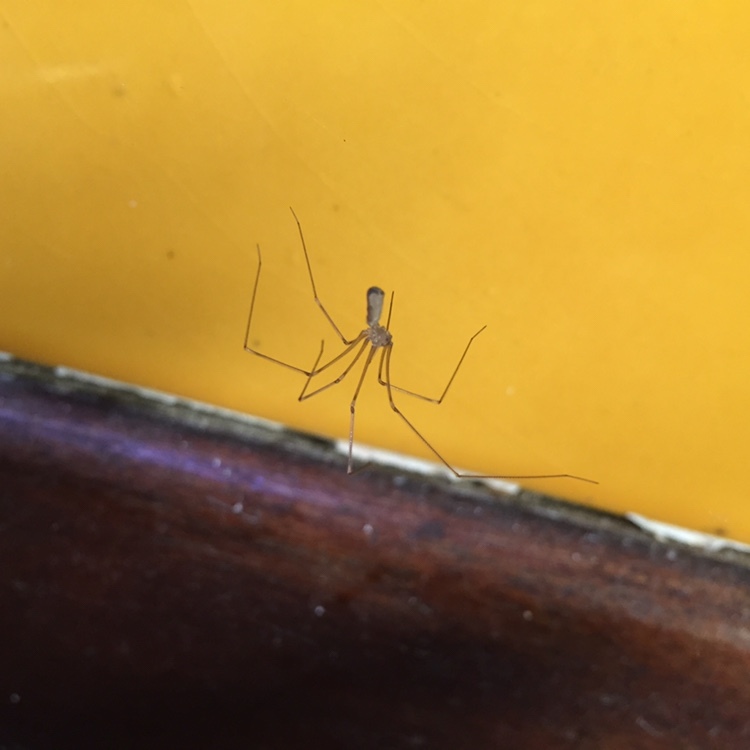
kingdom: Animalia
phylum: Arthropoda
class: Arachnida
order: Araneae
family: Pholcidae
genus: Pholcus
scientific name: Pholcus phalangioides
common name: Longbodied cellar spider
